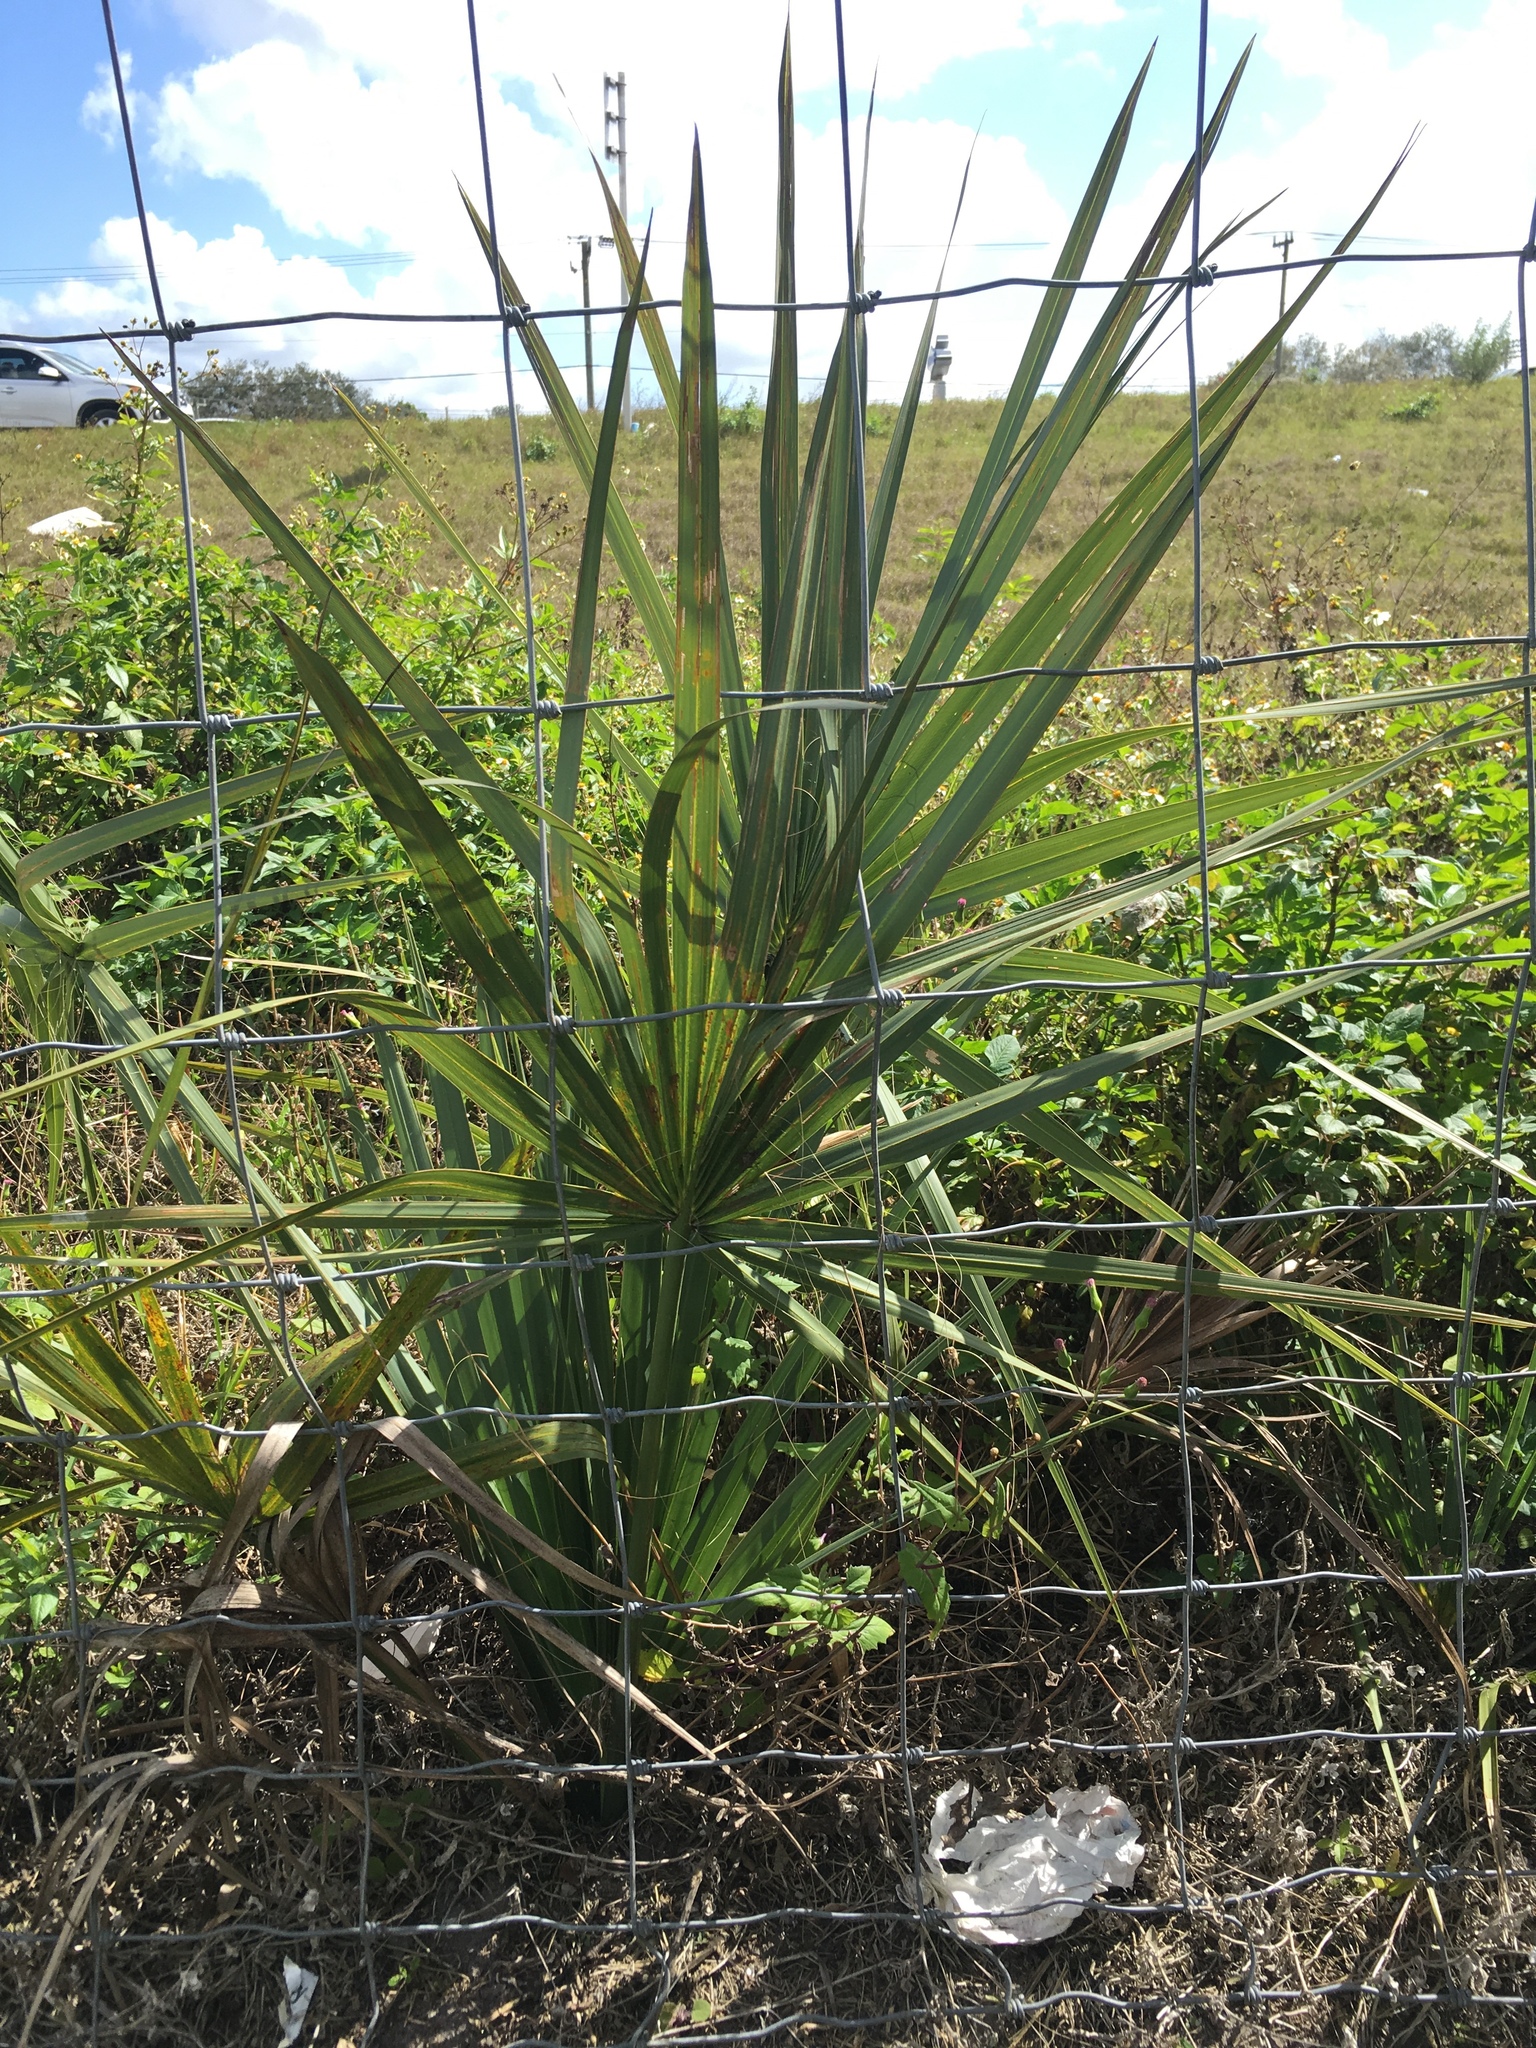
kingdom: Plantae
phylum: Tracheophyta
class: Liliopsida
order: Arecales
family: Arecaceae
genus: Sabal
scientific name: Sabal palmetto
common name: Blue palmetto
